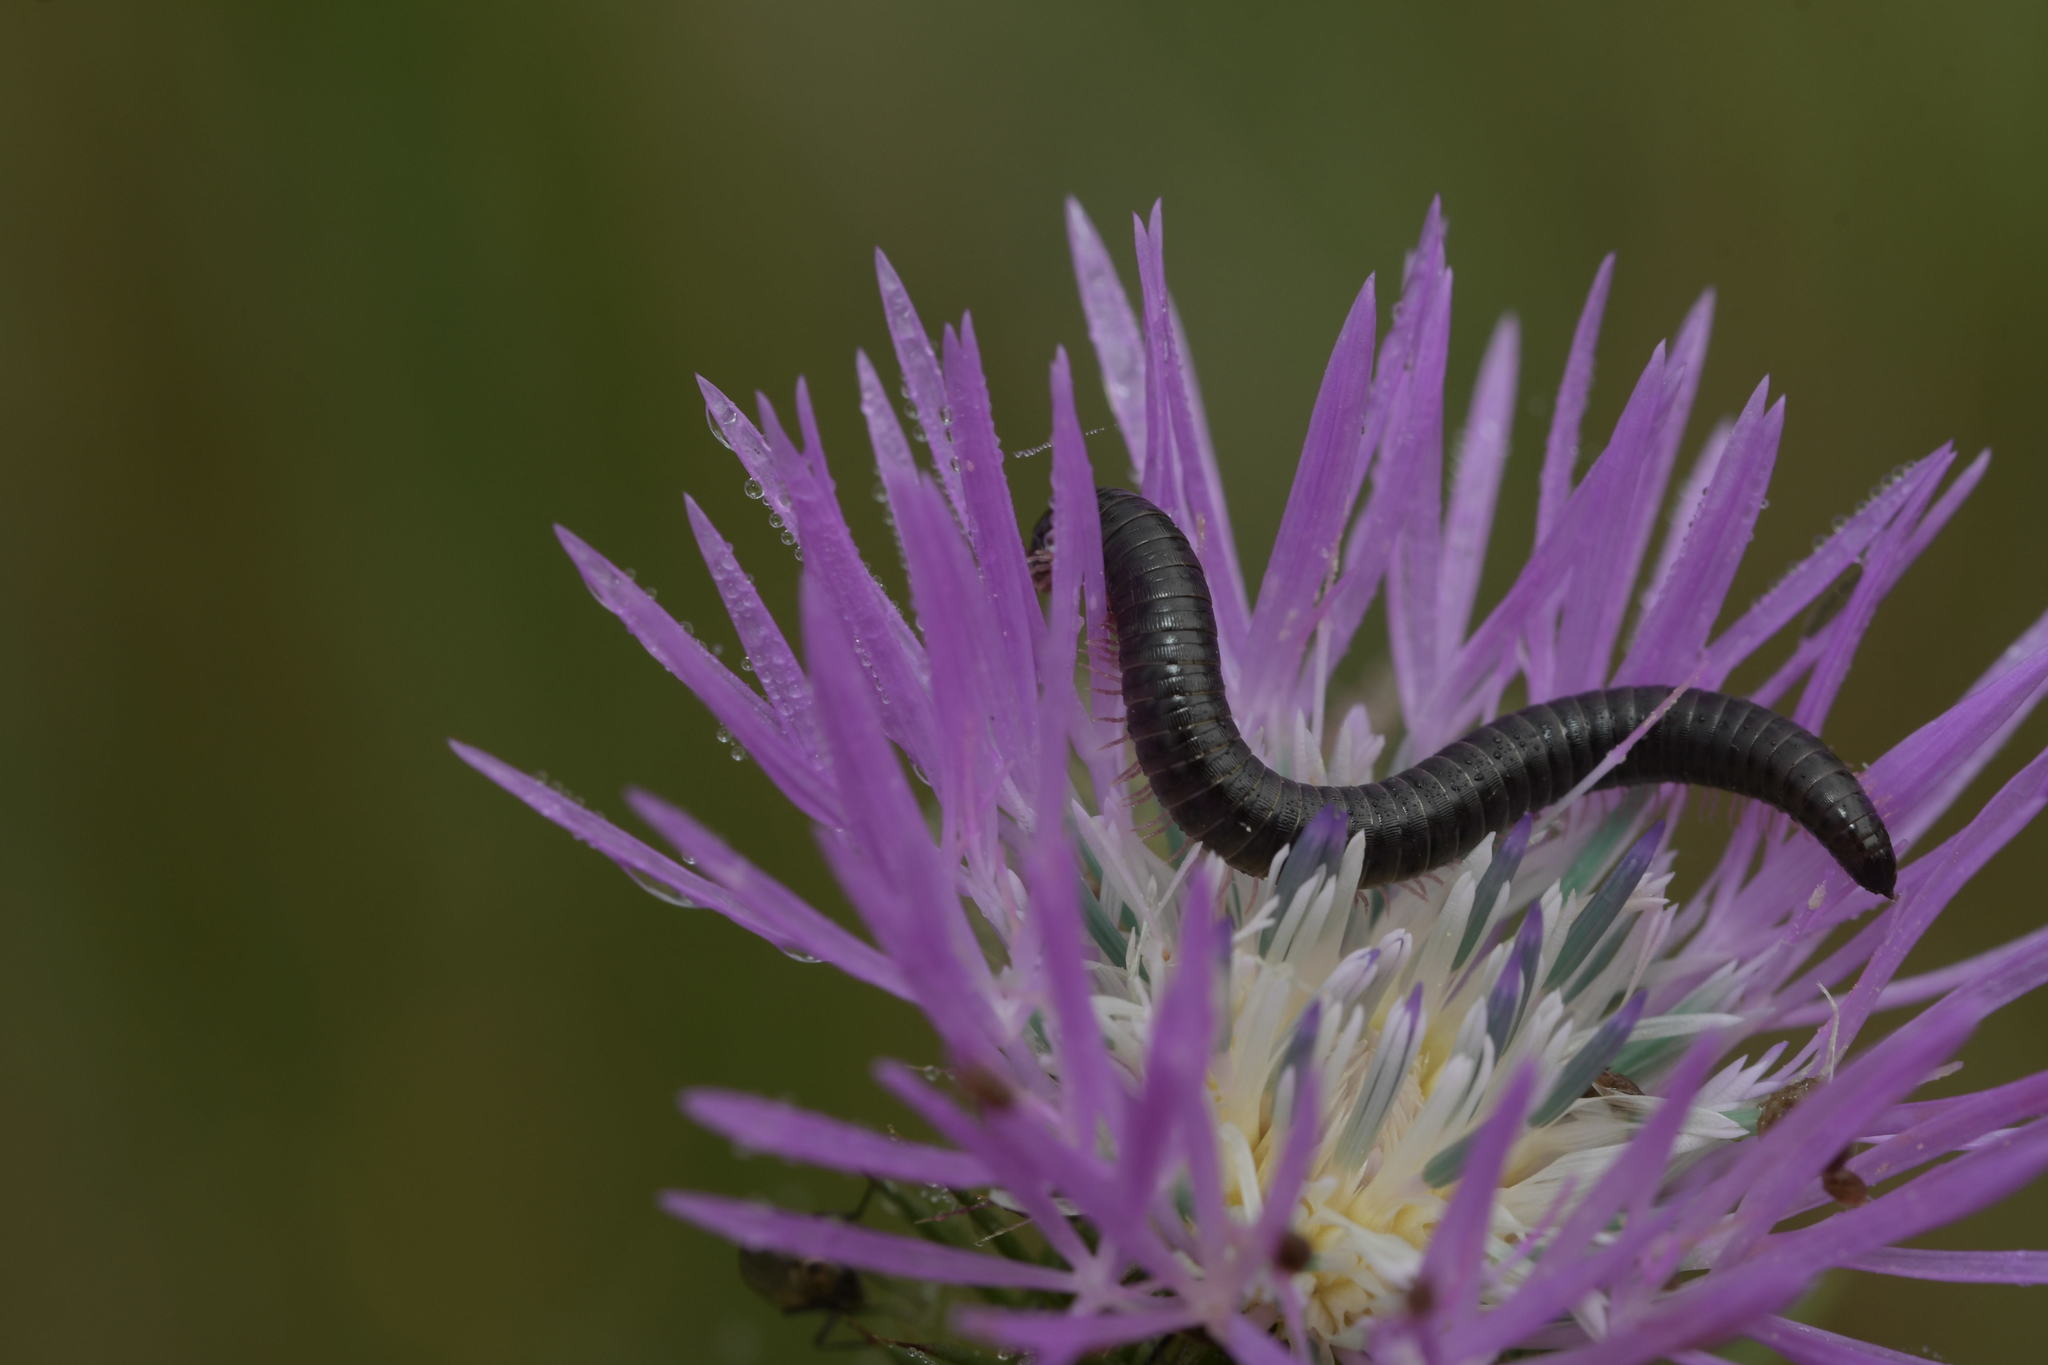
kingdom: Animalia
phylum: Arthropoda
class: Diplopoda
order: Julida
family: Julidae
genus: Ommatoiulus
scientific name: Ommatoiulus moreleti
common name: Portuguese millipede
